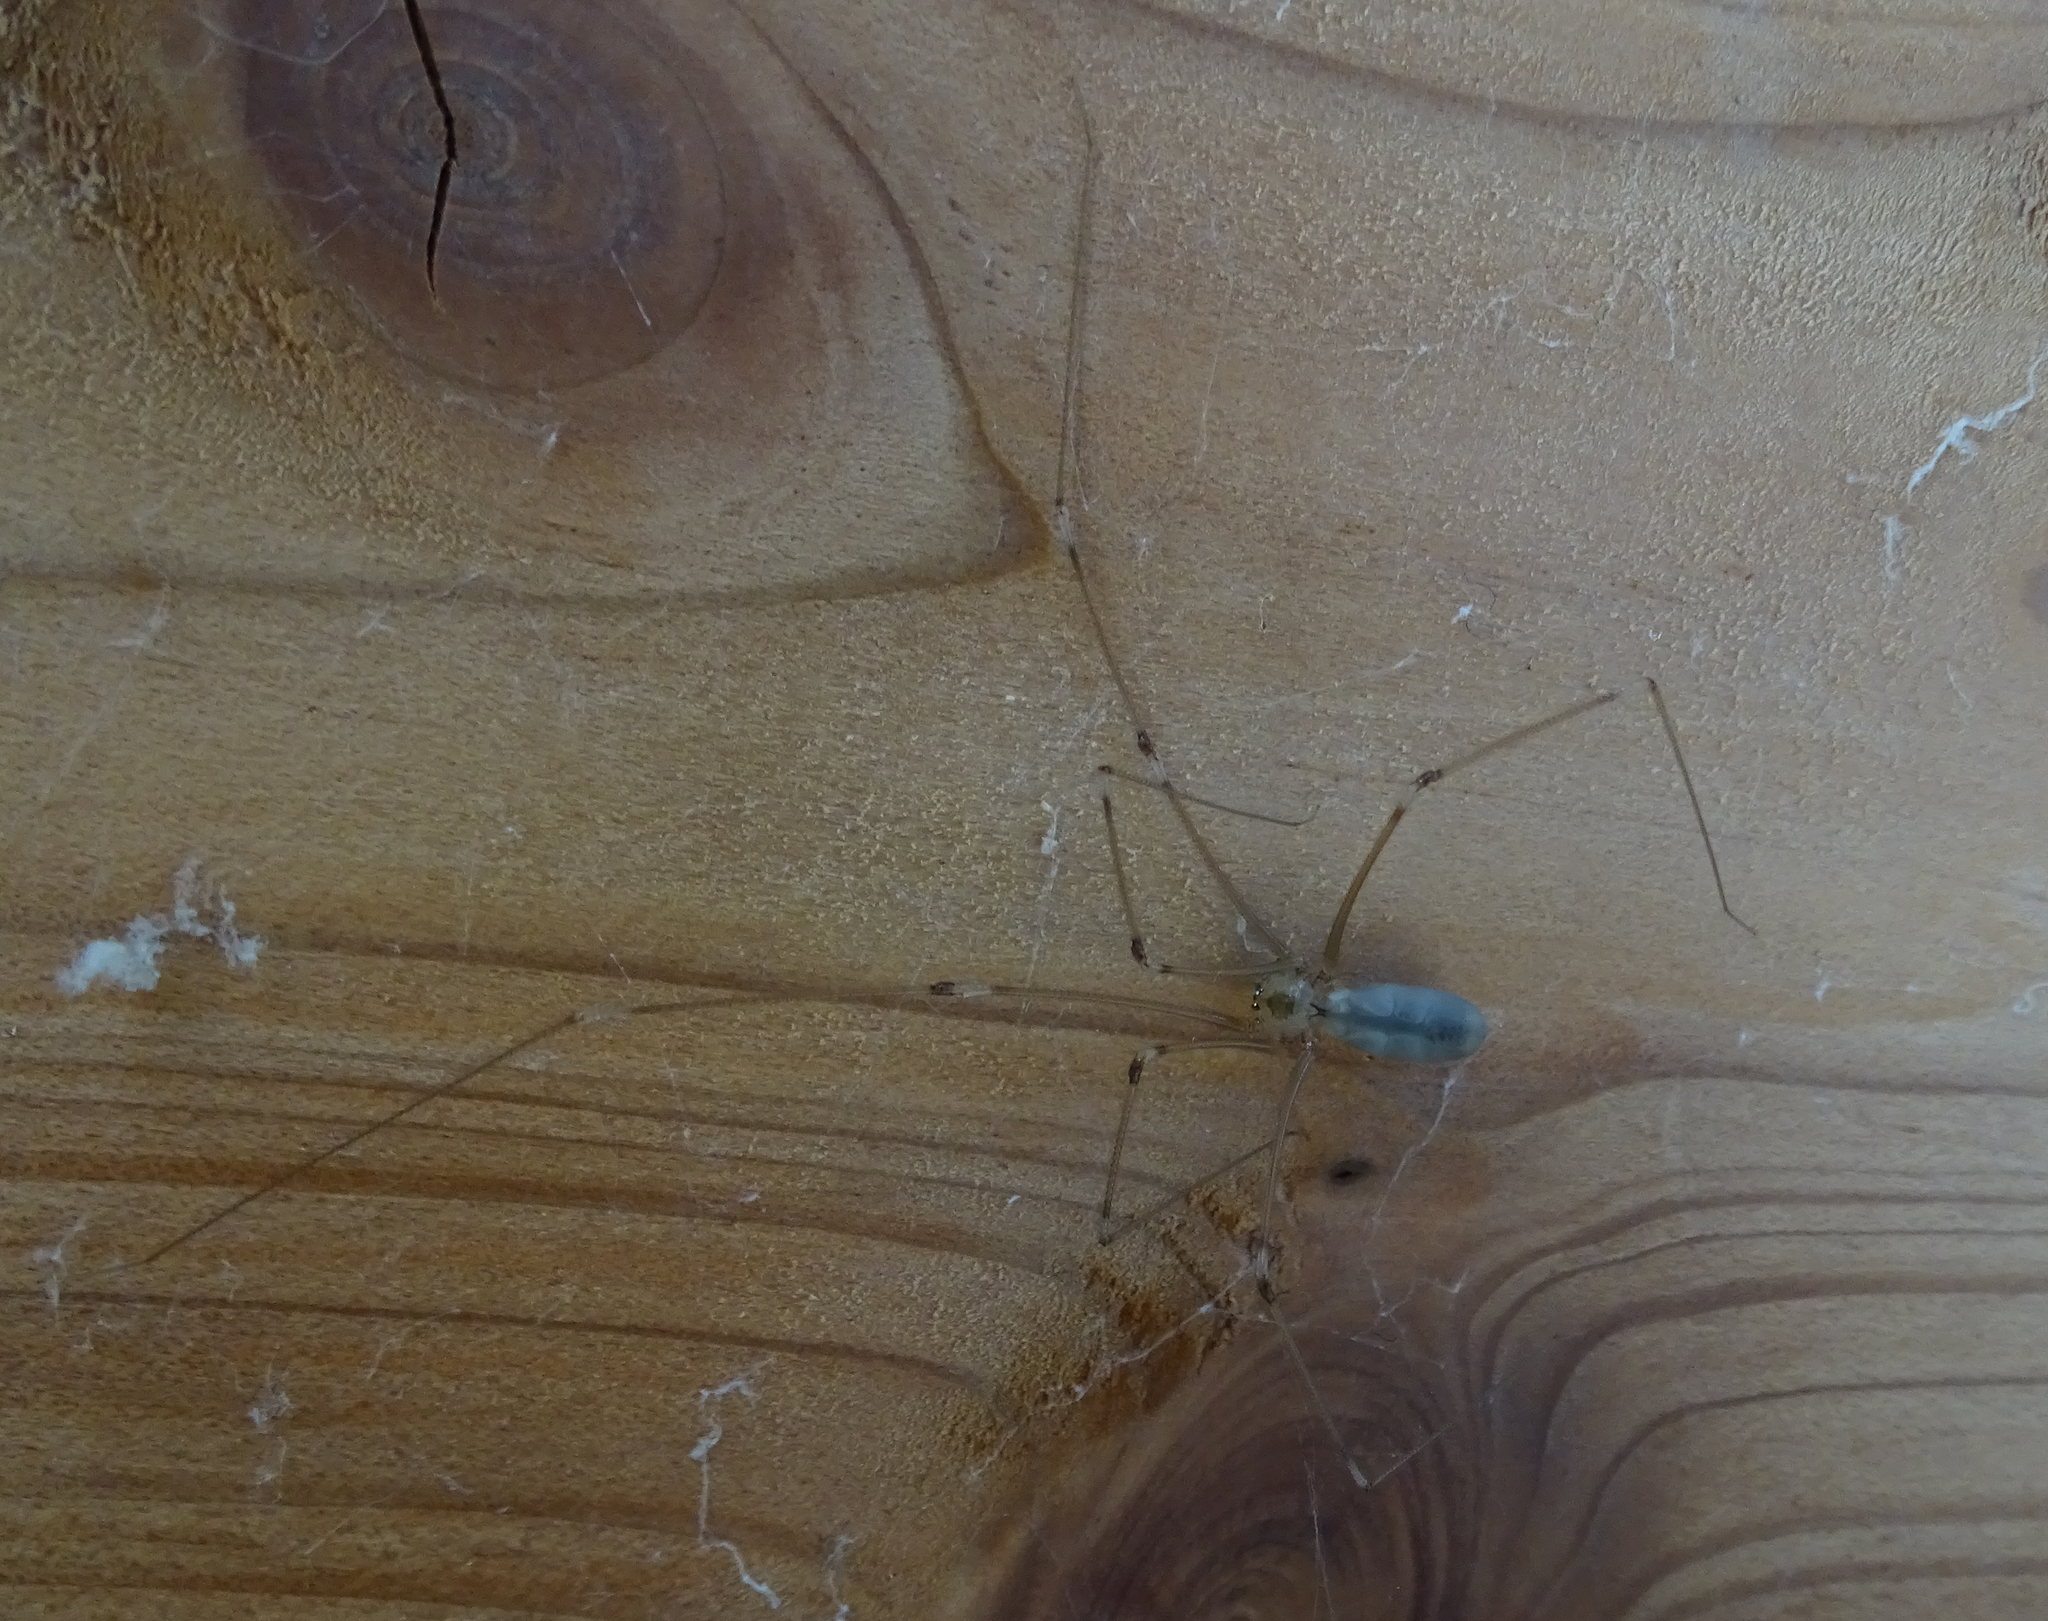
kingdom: Animalia
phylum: Arthropoda
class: Arachnida
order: Araneae
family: Pholcidae
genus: Pholcus
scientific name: Pholcus phalangioides
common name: Longbodied cellar spider
